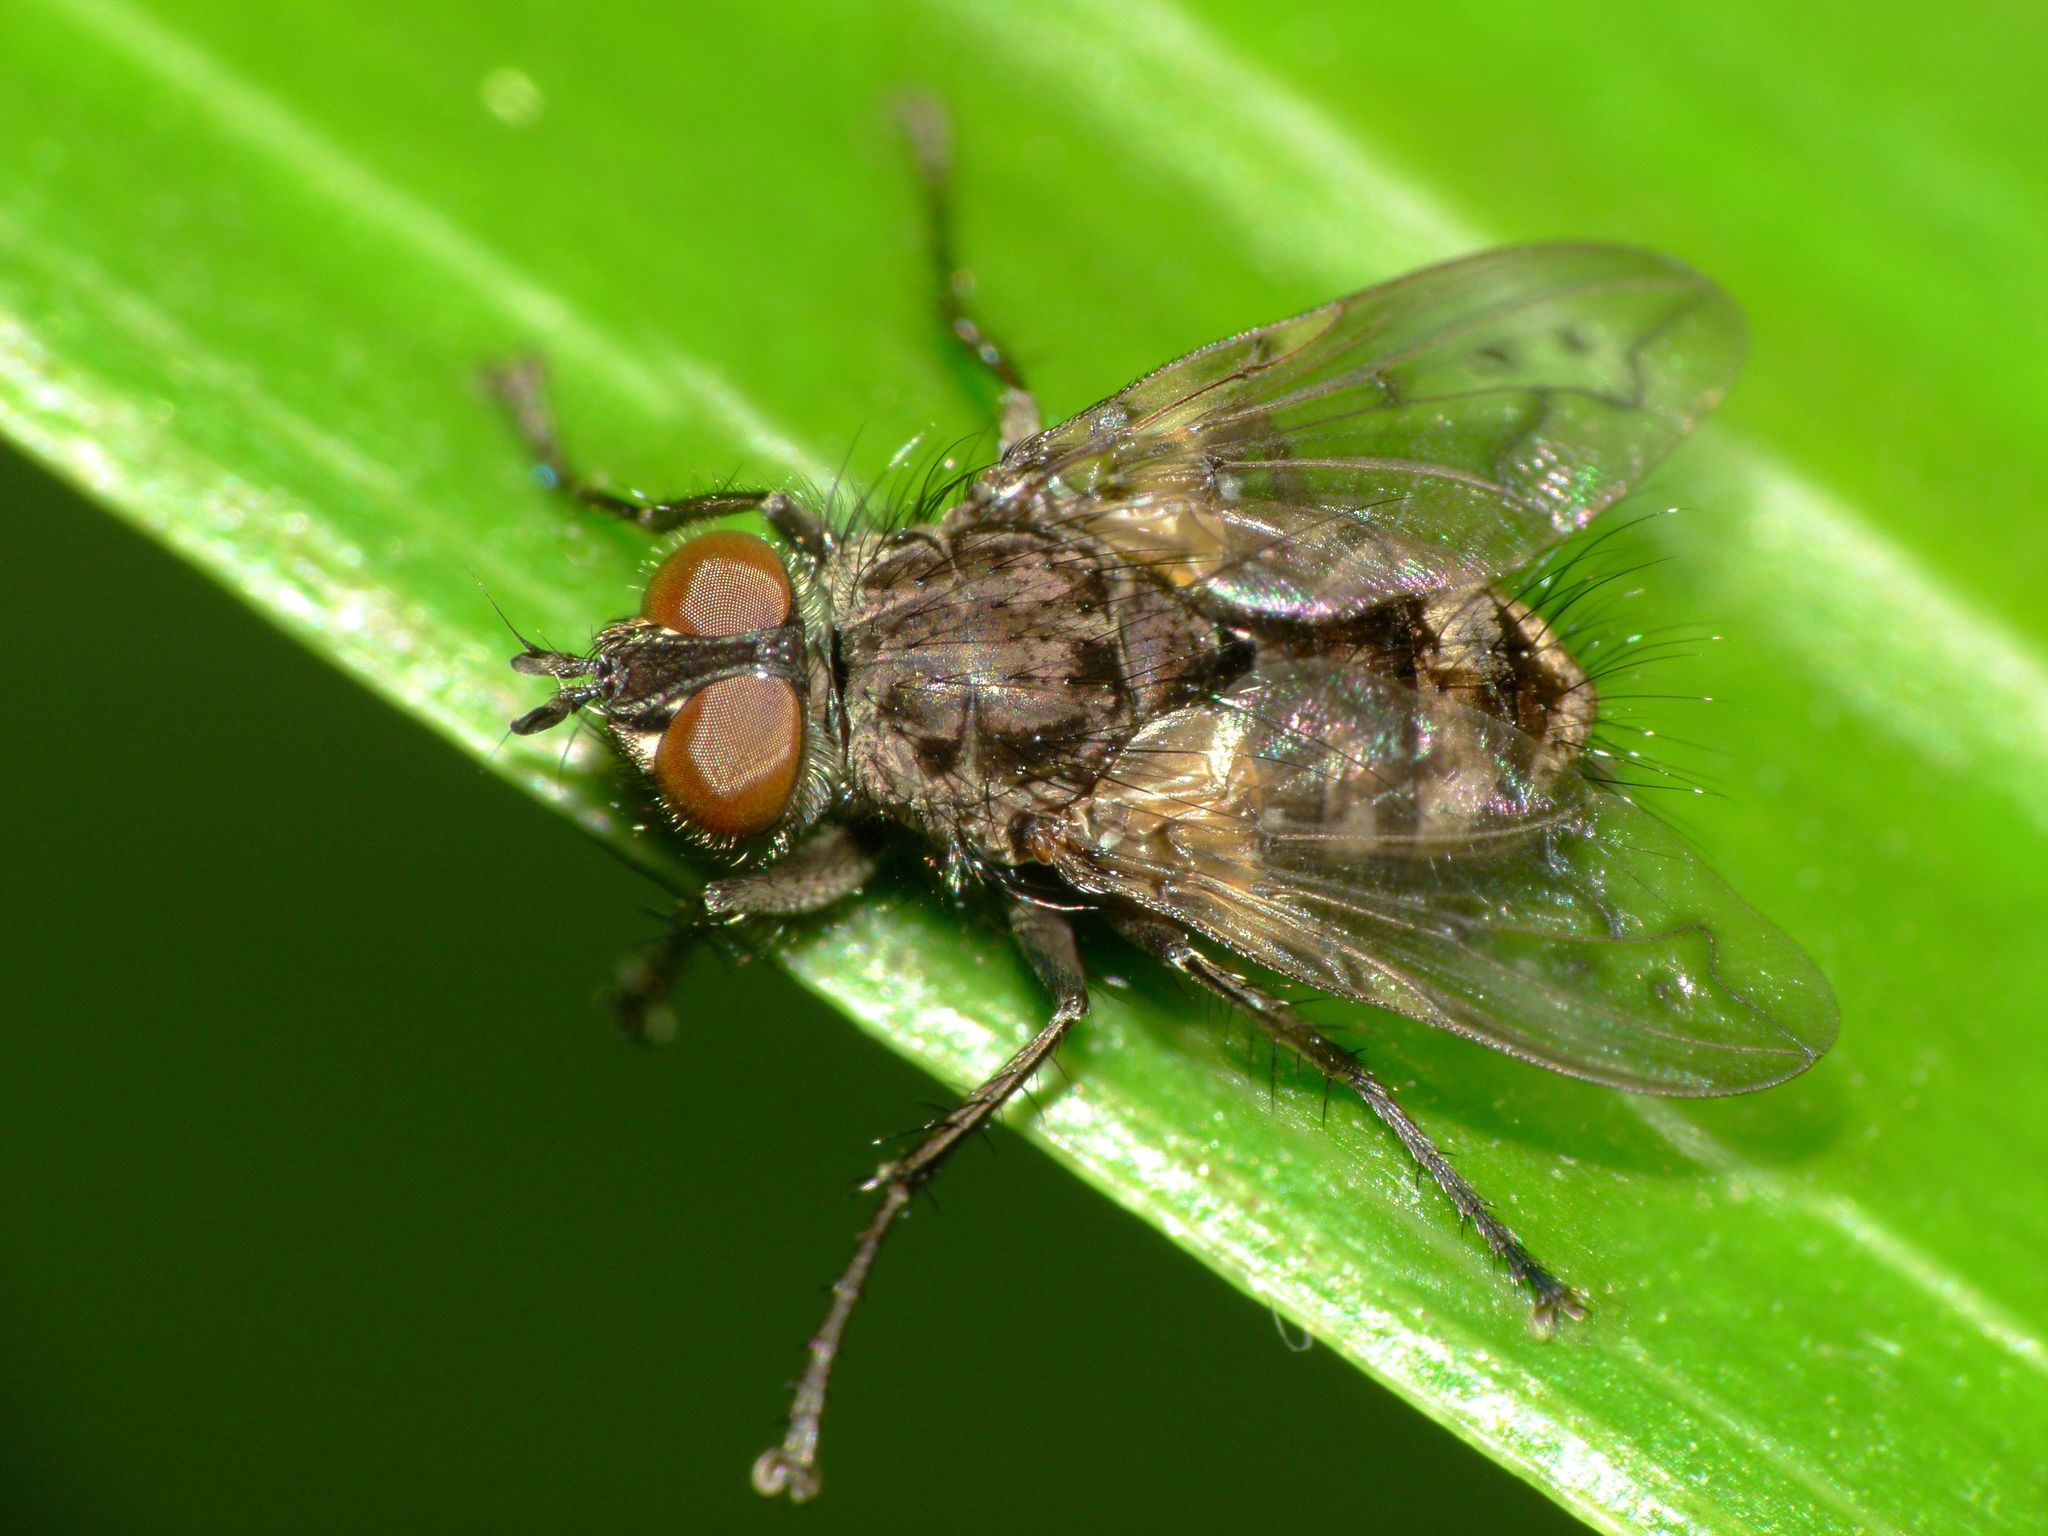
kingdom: Animalia
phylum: Arthropoda
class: Insecta
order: Diptera
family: Tachinidae
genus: Mallochomacquartia
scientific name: Mallochomacquartia vexata
